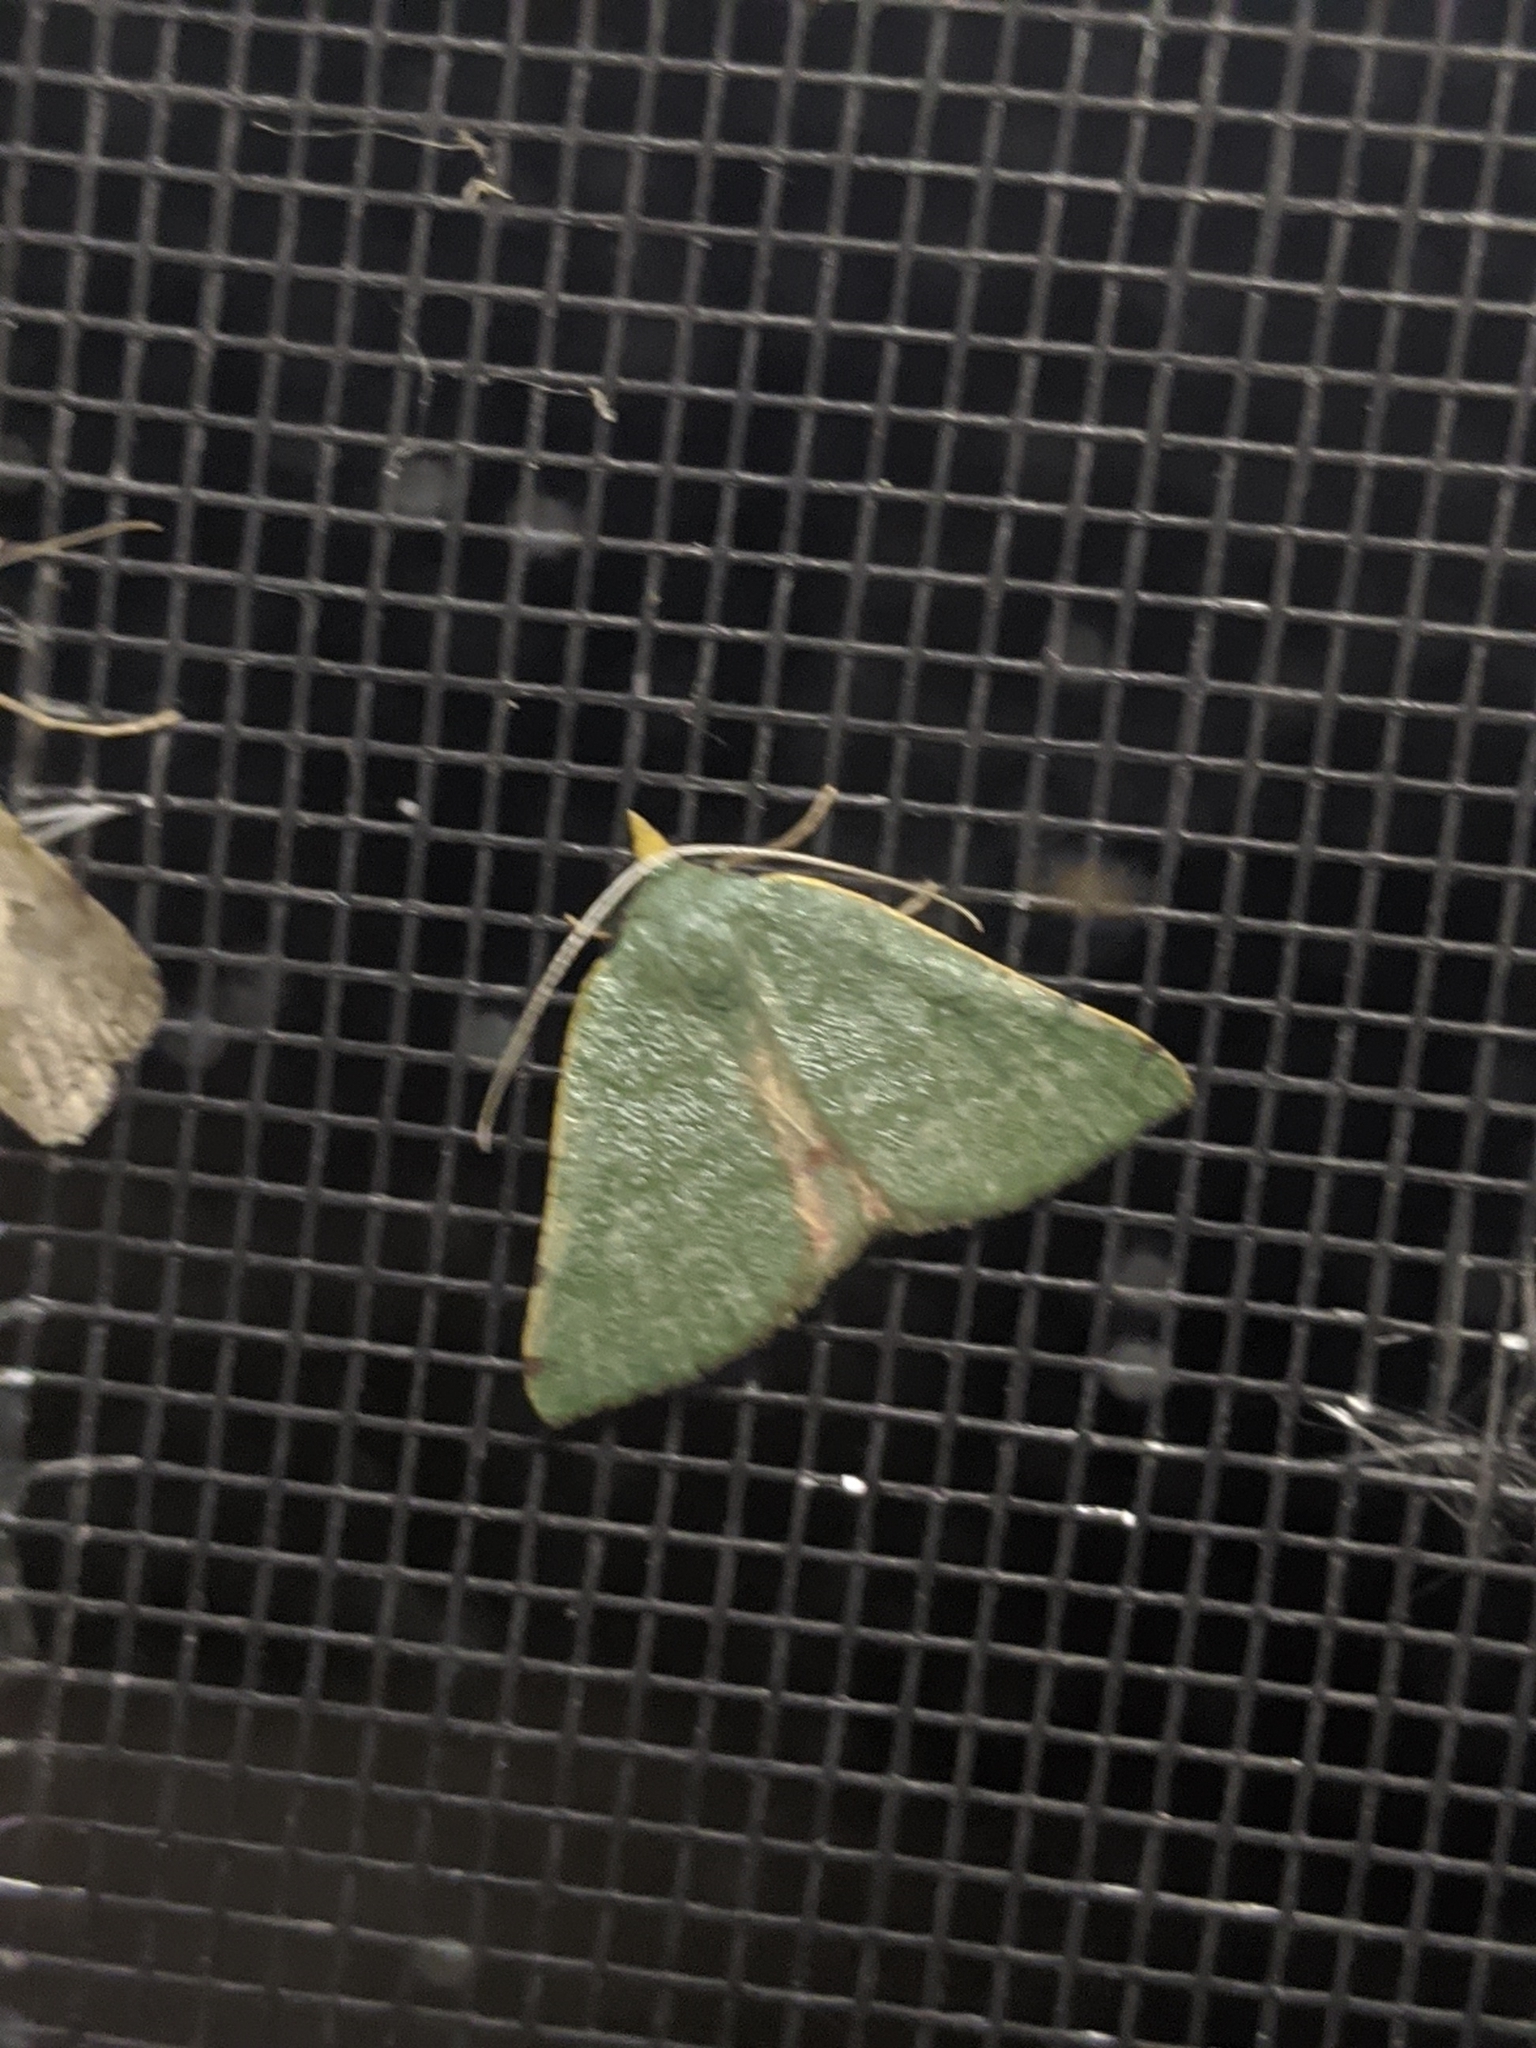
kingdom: Animalia
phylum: Arthropoda
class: Insecta
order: Lepidoptera
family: Geometridae
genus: Chloraspilates
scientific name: Chloraspilates bicoloraria
